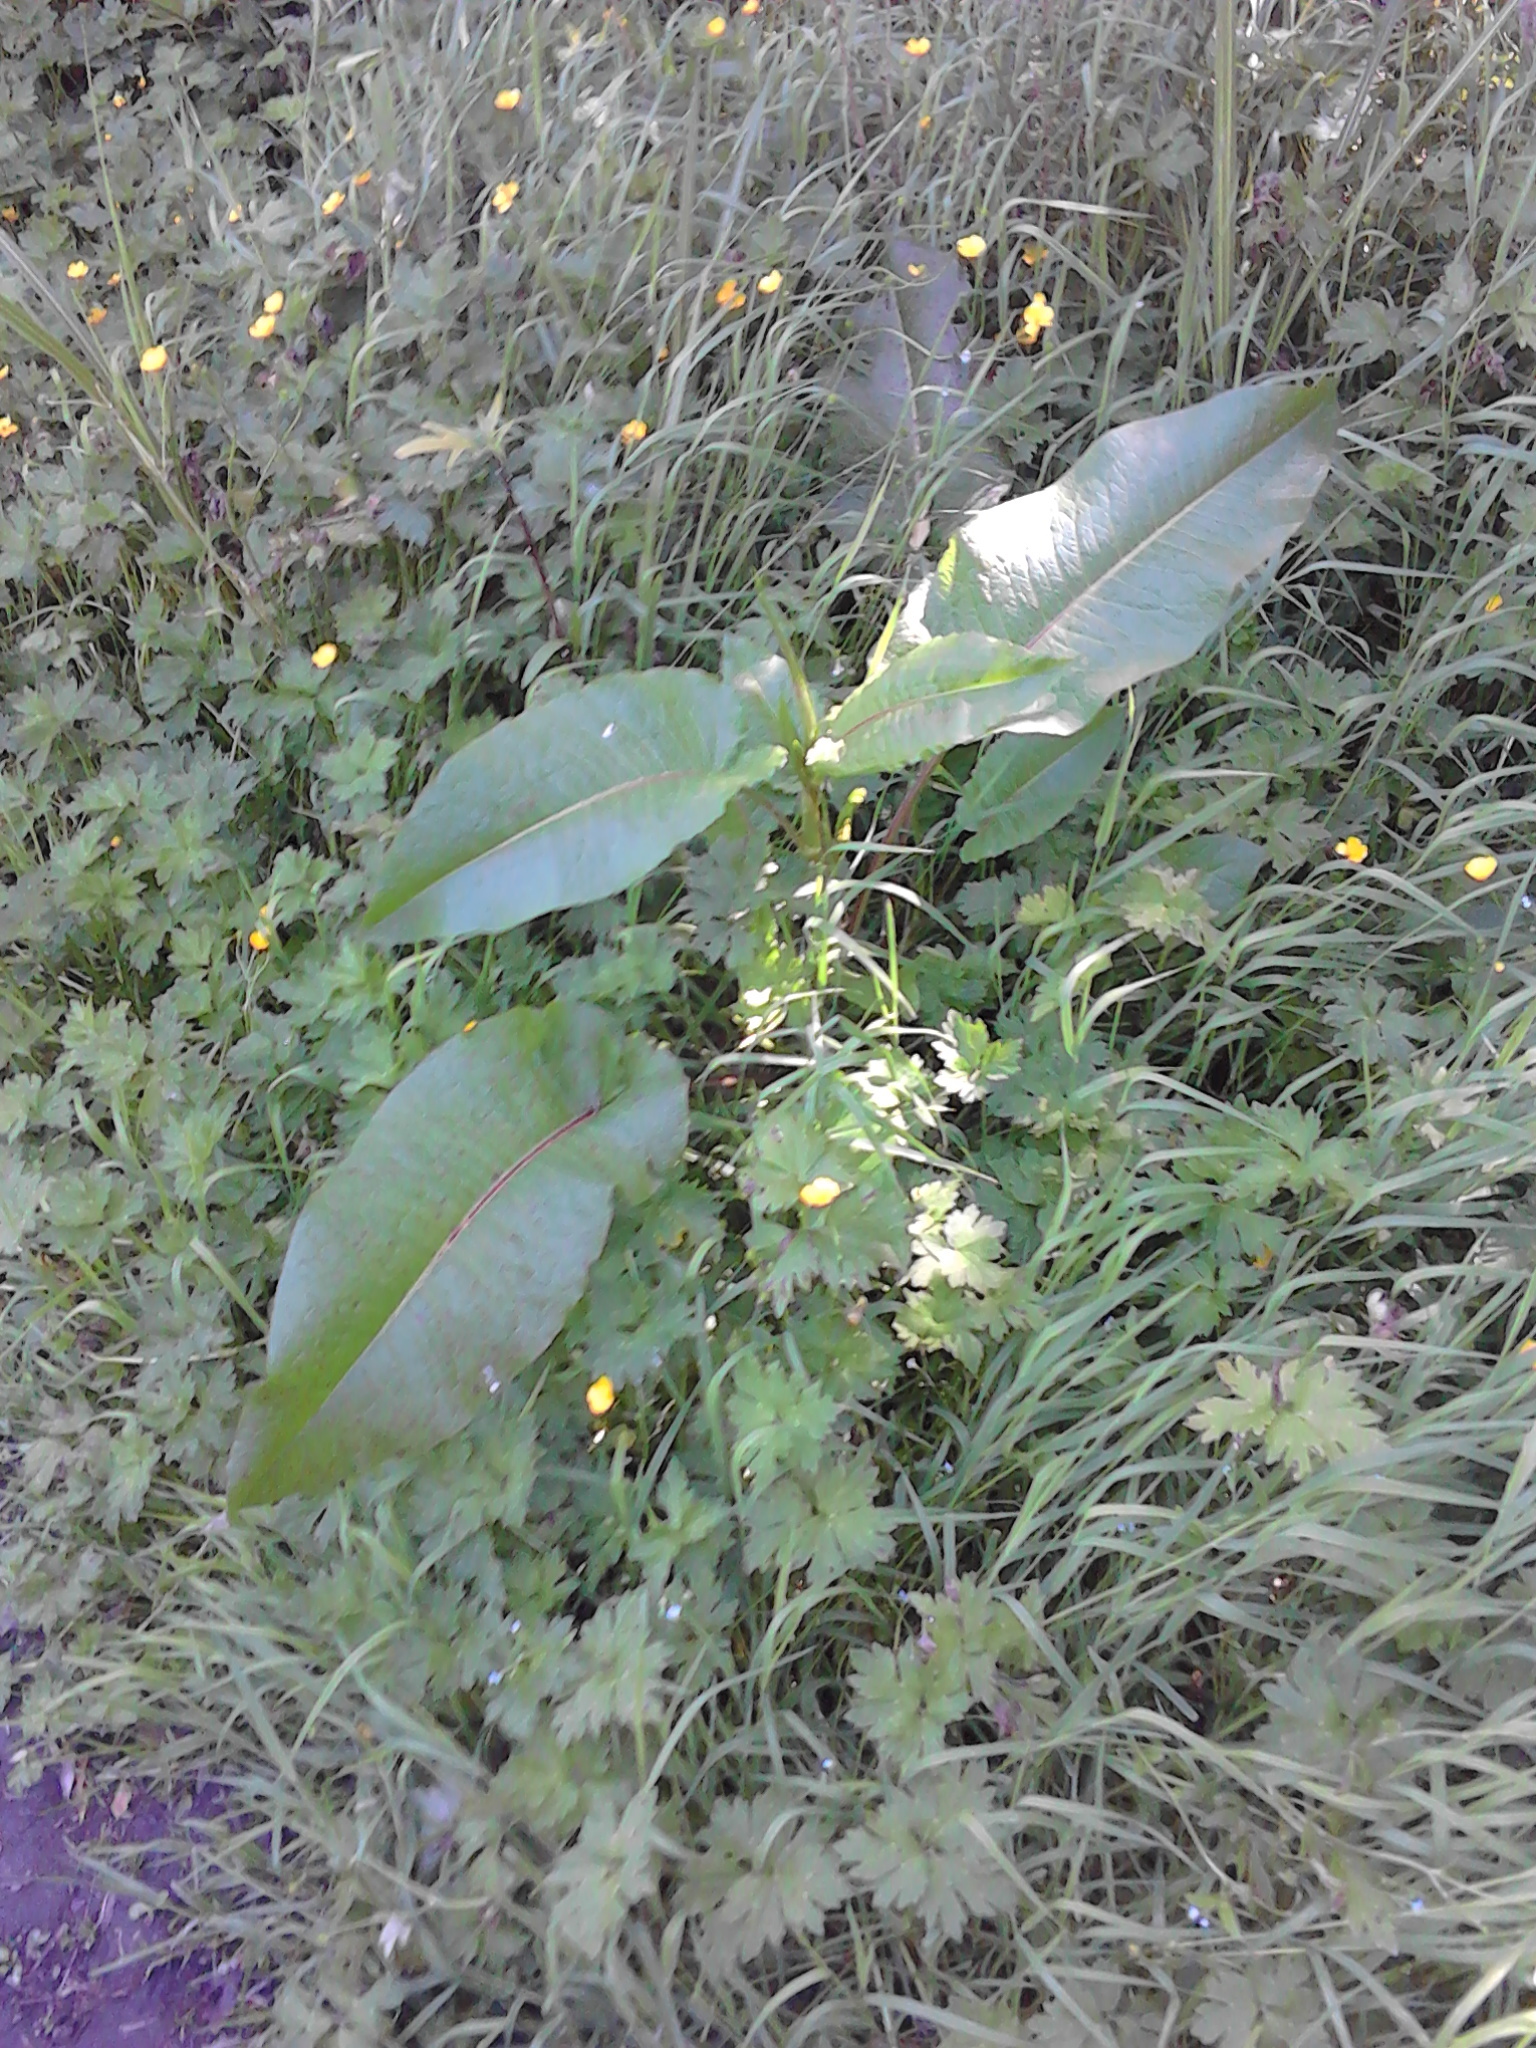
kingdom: Plantae
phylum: Tracheophyta
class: Magnoliopsida
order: Caryophyllales
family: Polygonaceae
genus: Rumex
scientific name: Rumex obtusifolius
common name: Bitter dock
